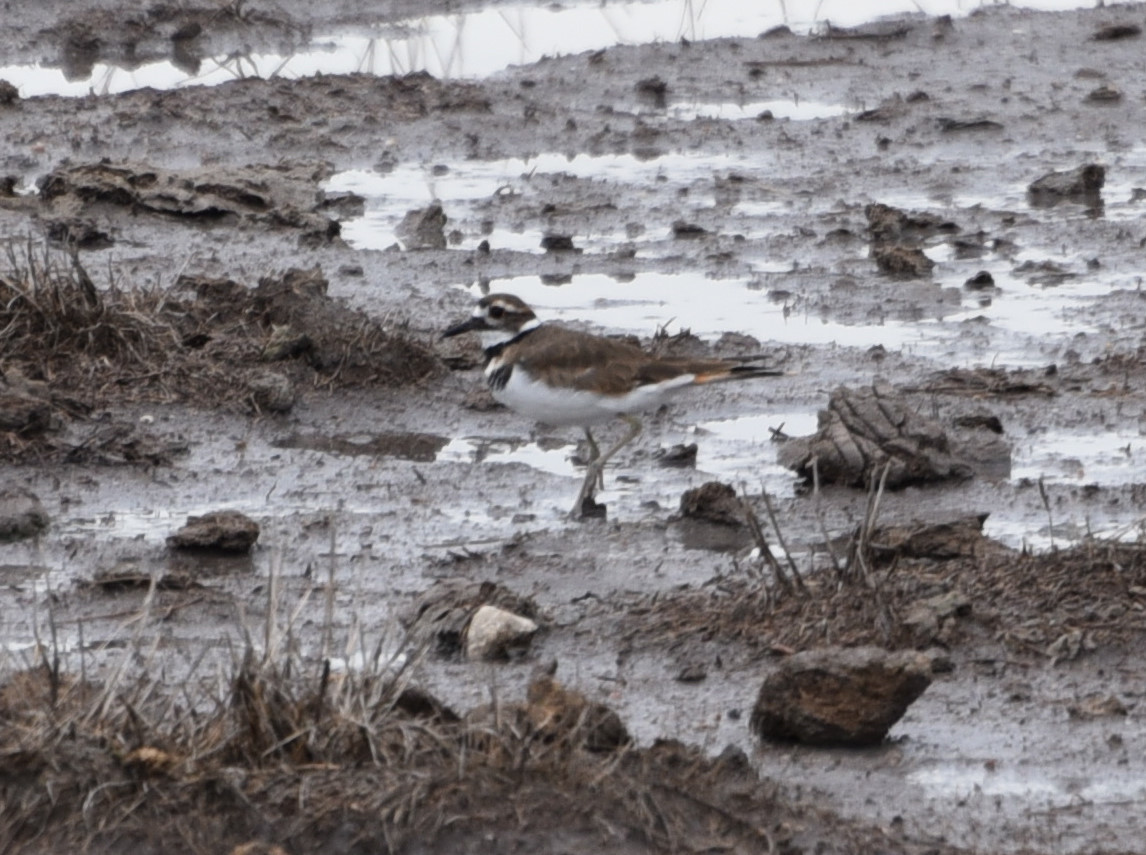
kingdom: Animalia
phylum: Chordata
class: Aves
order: Charadriiformes
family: Charadriidae
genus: Charadrius
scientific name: Charadrius vociferus
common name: Killdeer
